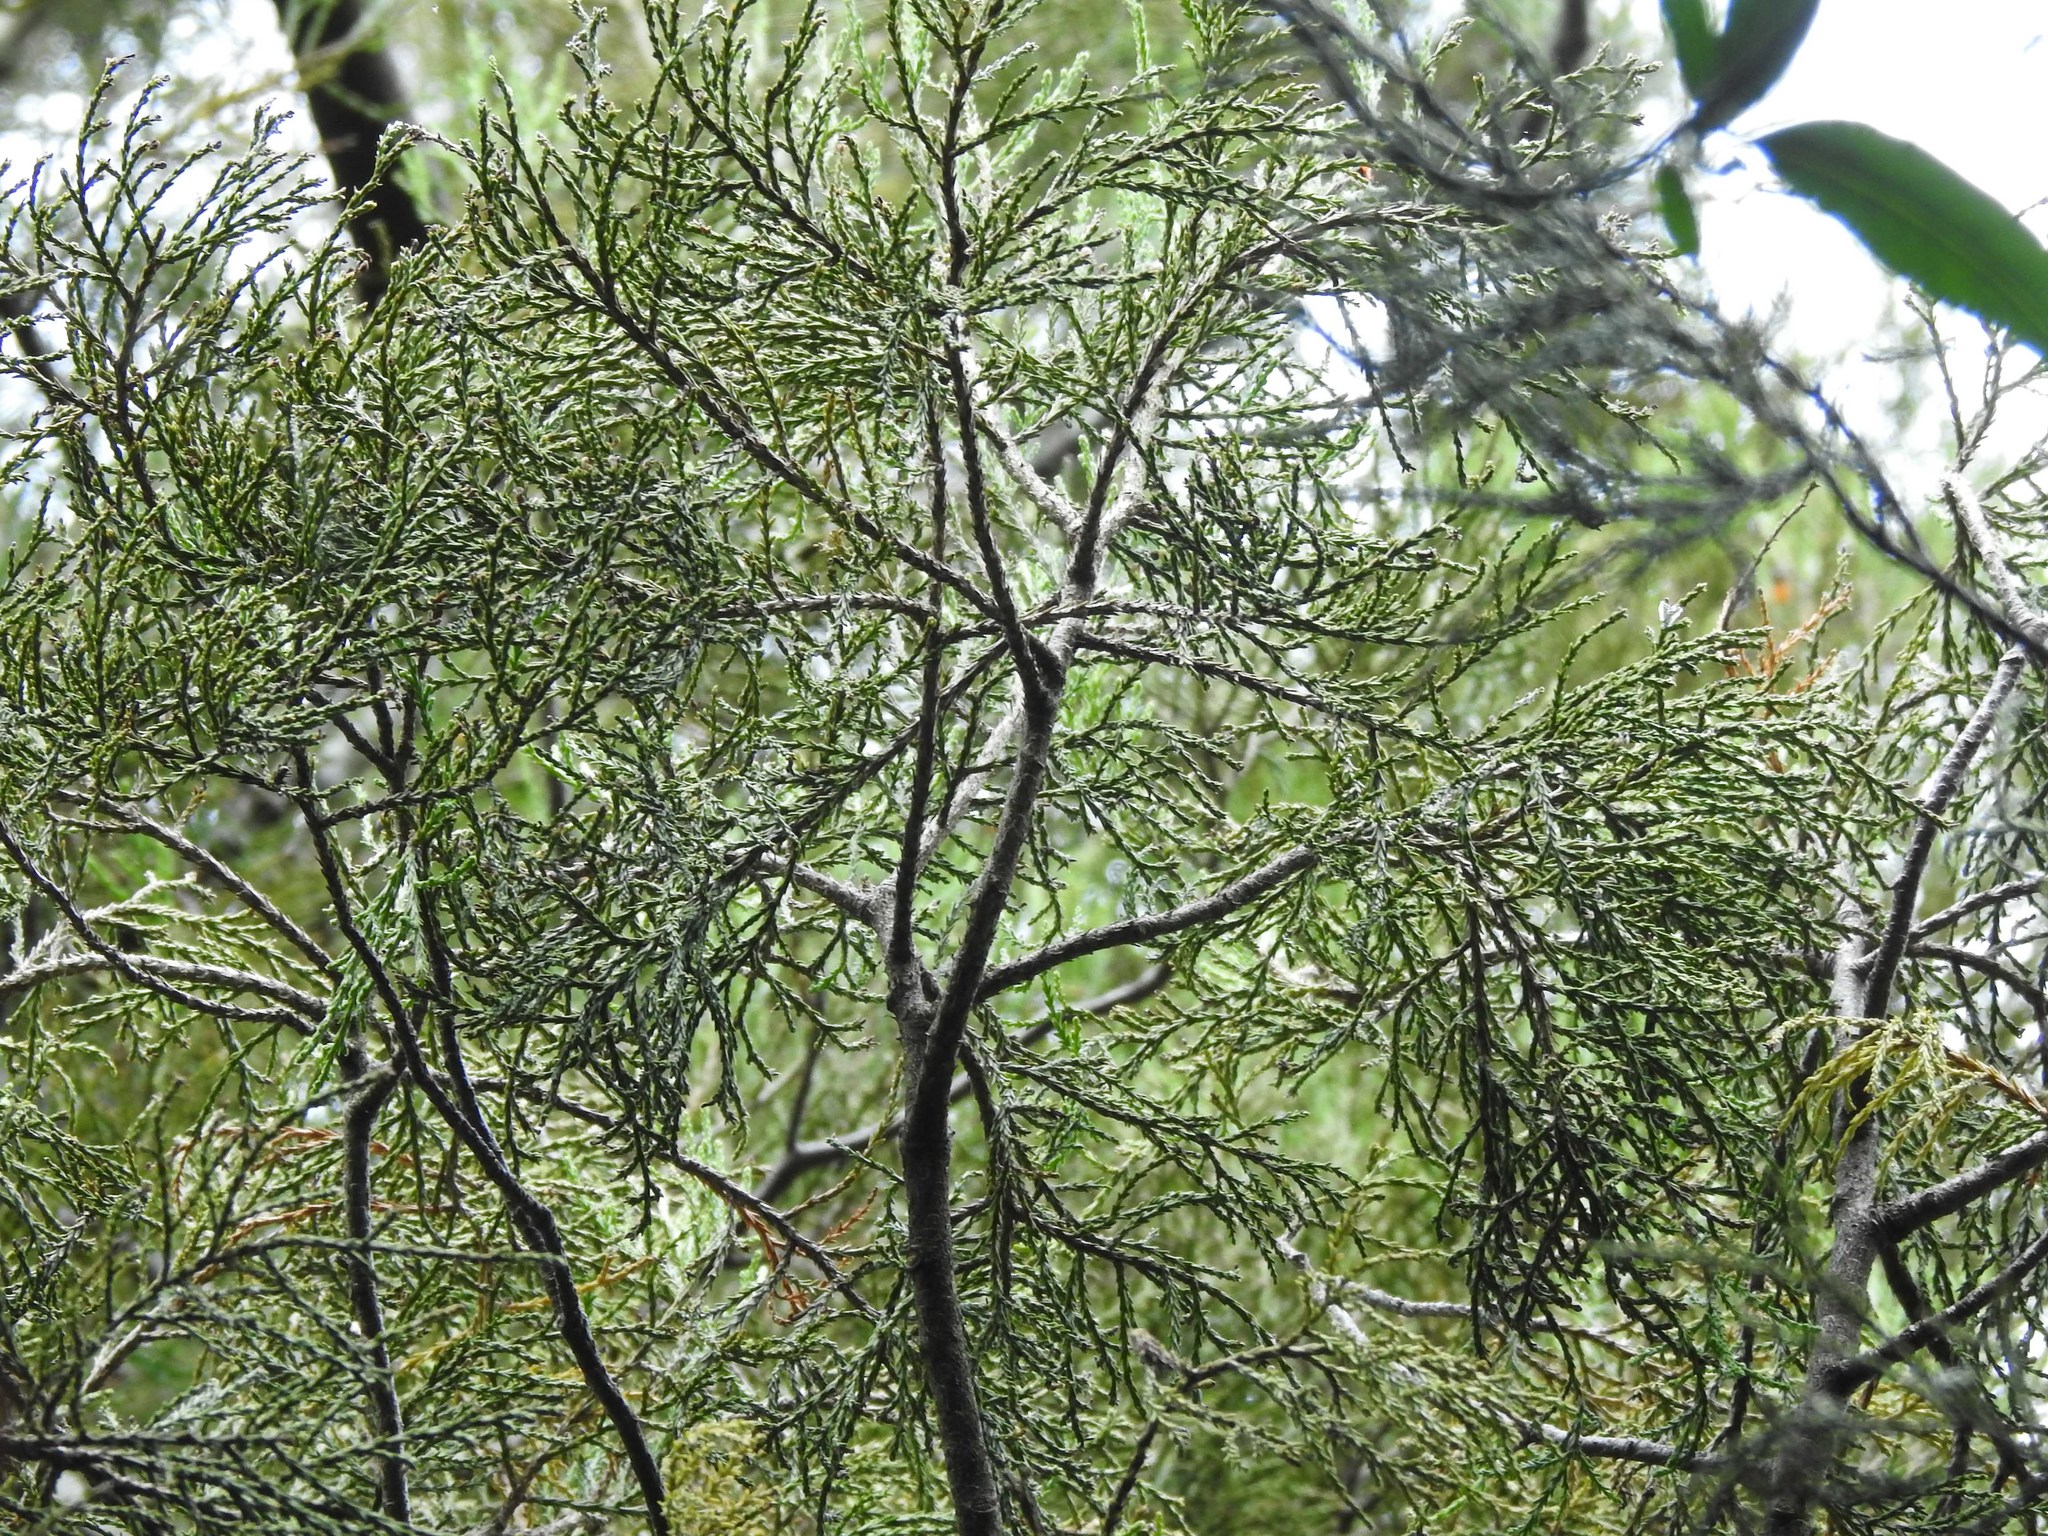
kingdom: Plantae
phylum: Tracheophyta
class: Pinopsida
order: Pinales
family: Podocarpaceae
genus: Dacrycarpus
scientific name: Dacrycarpus dacrydioides
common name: White pine
